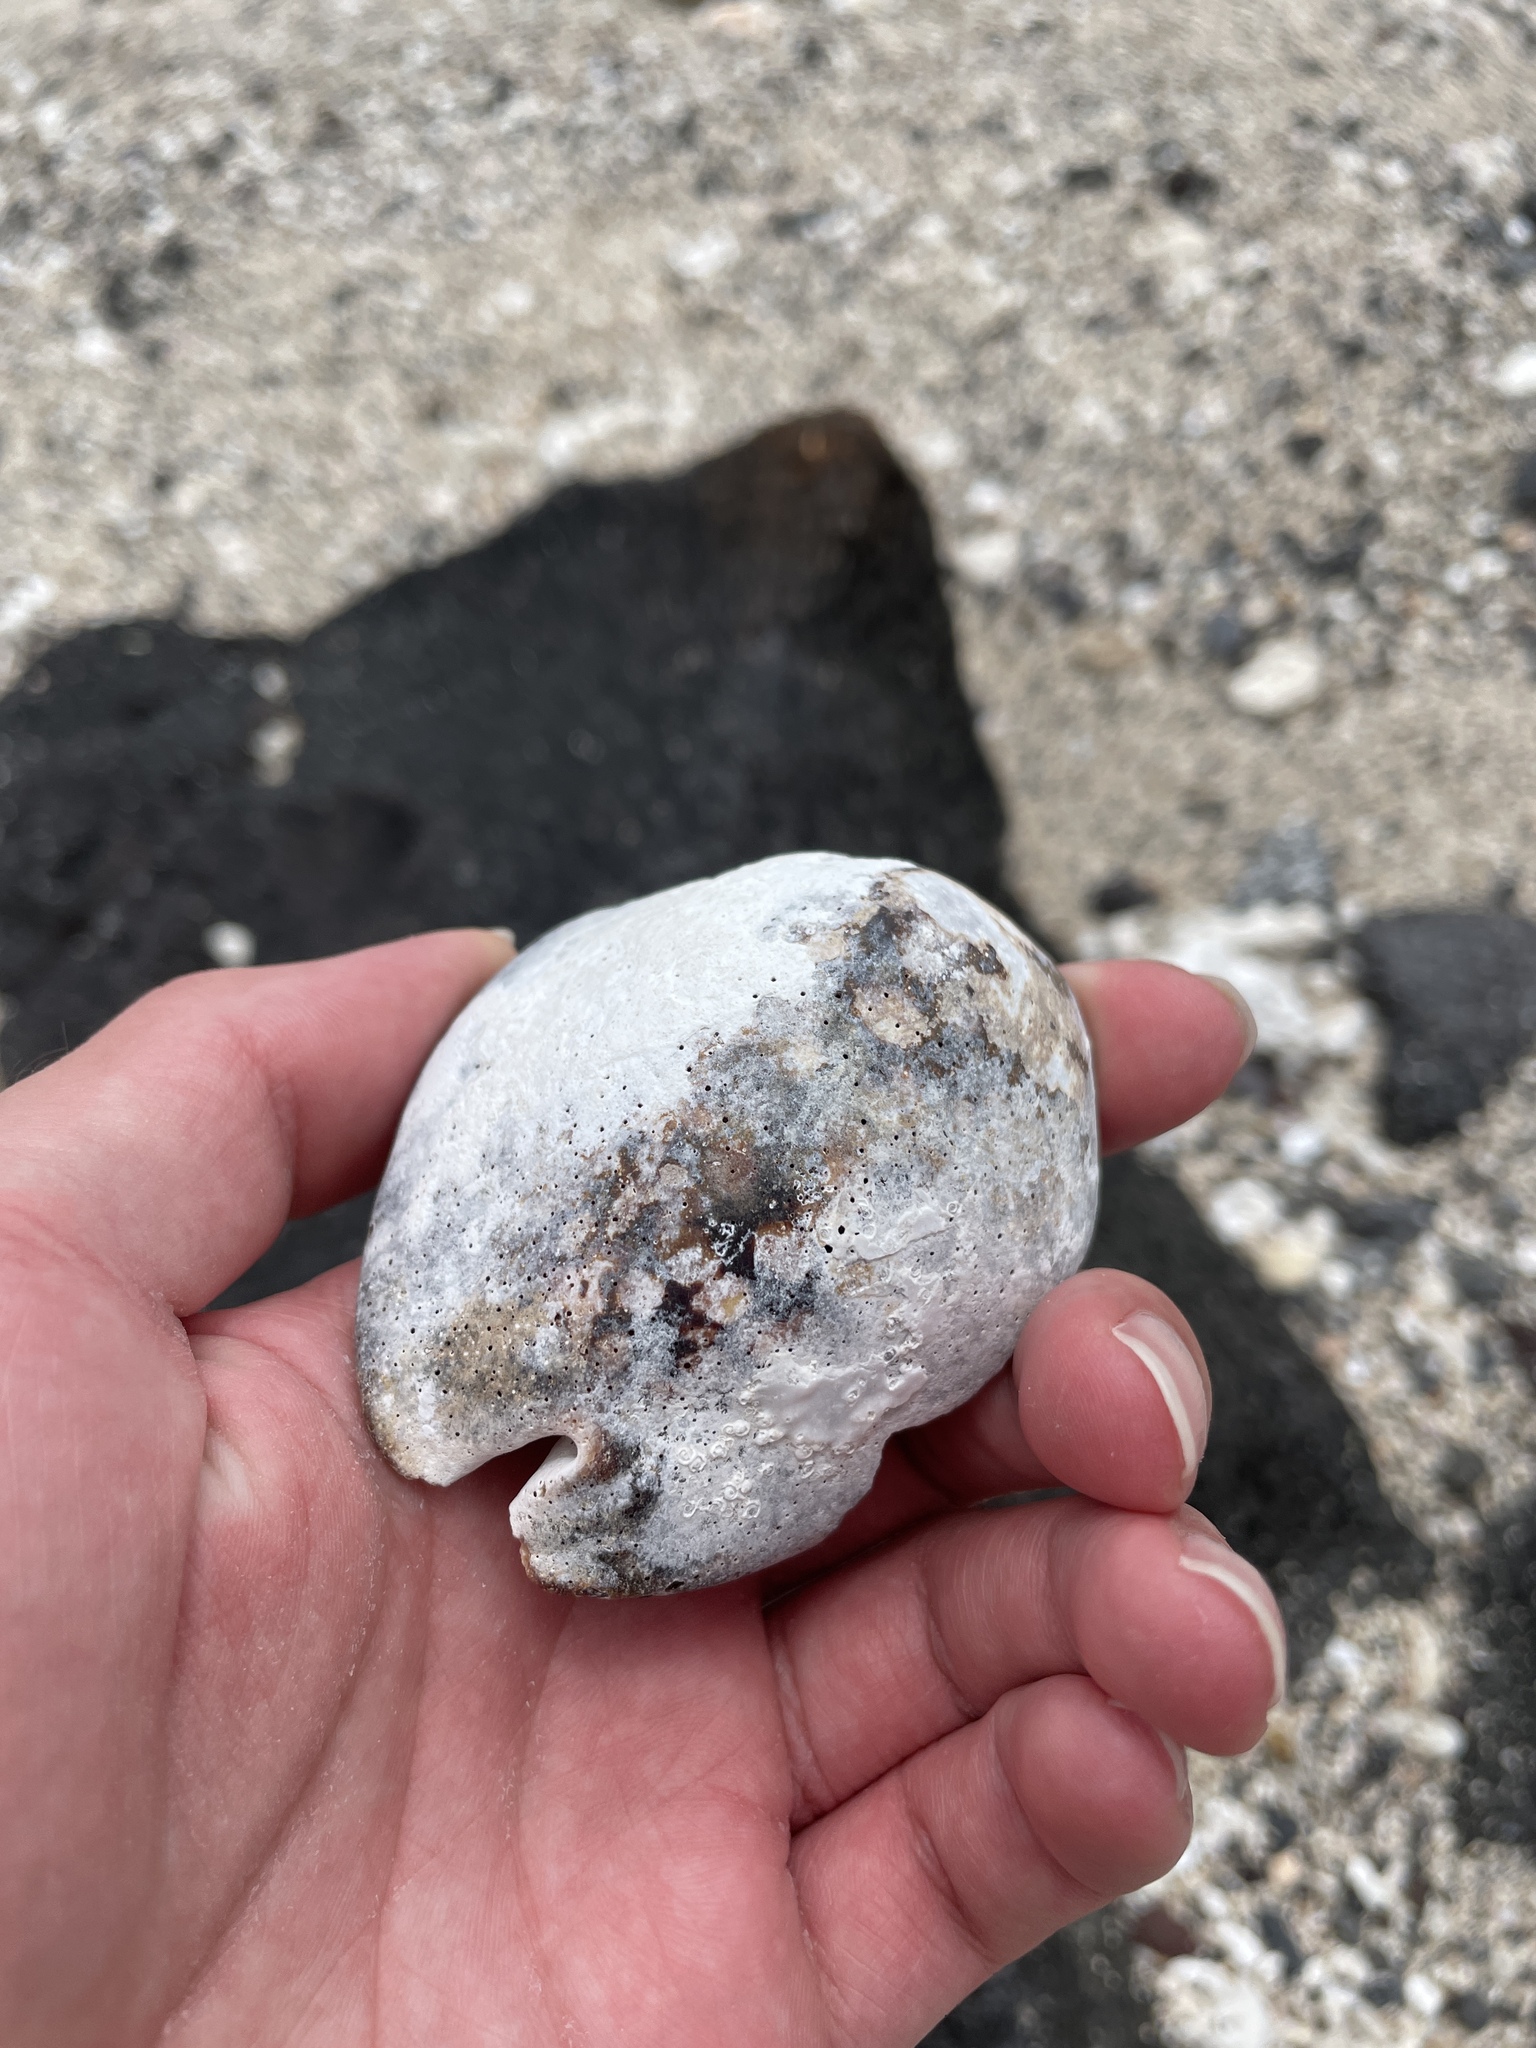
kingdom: Animalia
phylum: Mollusca
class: Gastropoda
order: Littorinimorpha
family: Cypraeidae
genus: Mauritia
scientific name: Mauritia mauritiana
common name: Hump-backed cowrie
